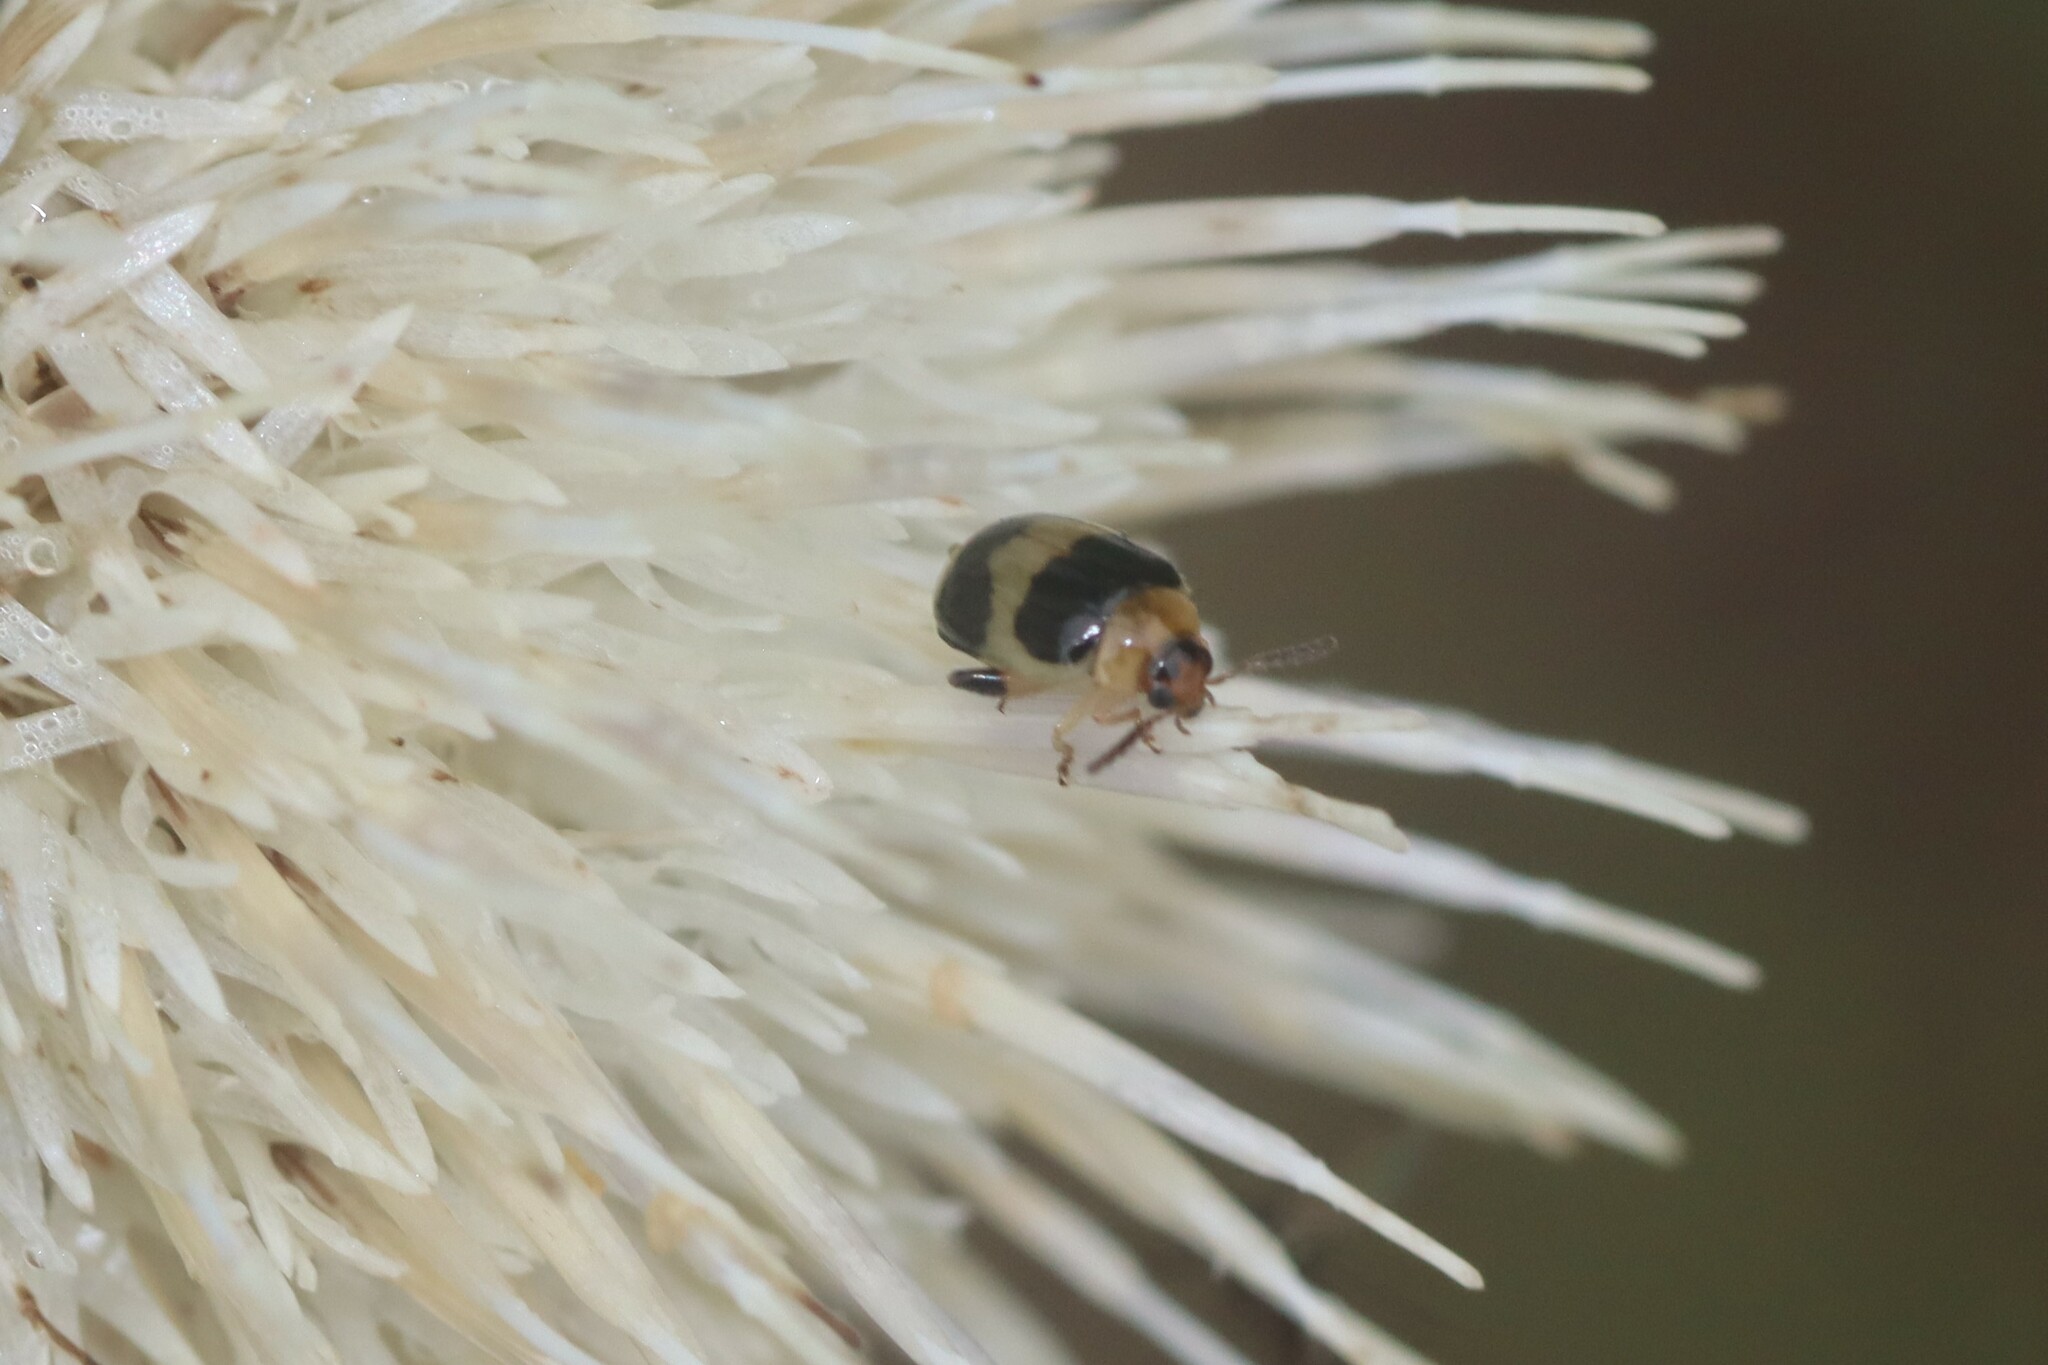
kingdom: Animalia
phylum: Arthropoda
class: Insecta
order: Coleoptera
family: Chrysomelidae
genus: Nonarthra
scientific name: Nonarthra
